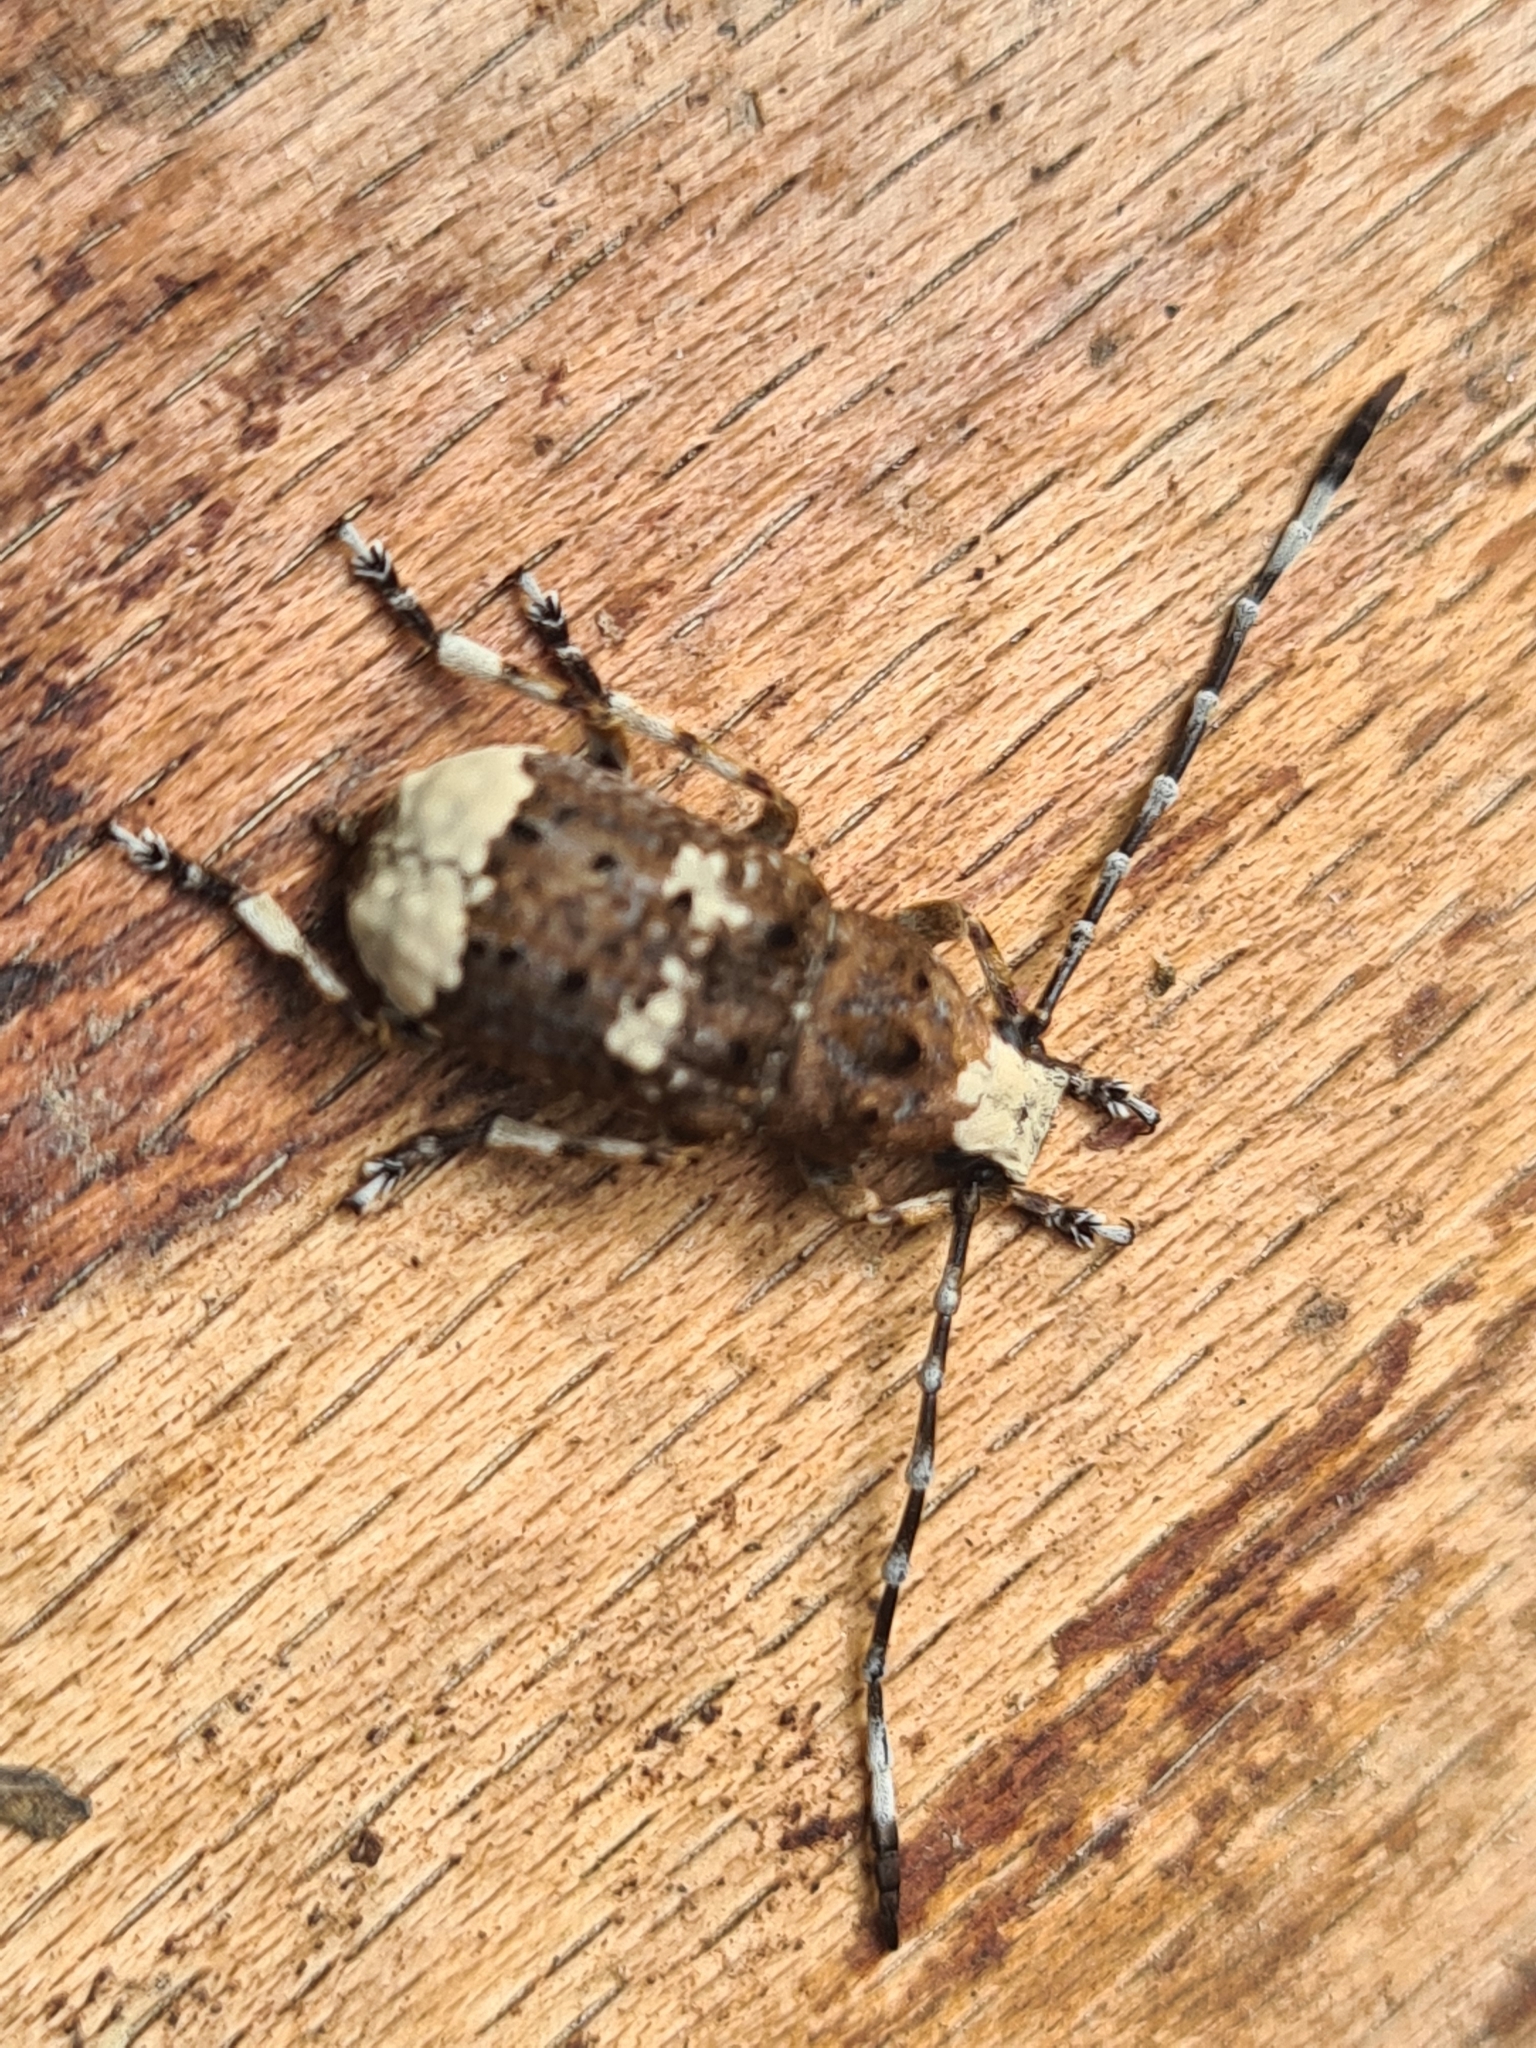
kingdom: Animalia
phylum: Arthropoda
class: Insecta
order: Coleoptera
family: Anthribidae
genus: Platystomos
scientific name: Platystomos albinus
